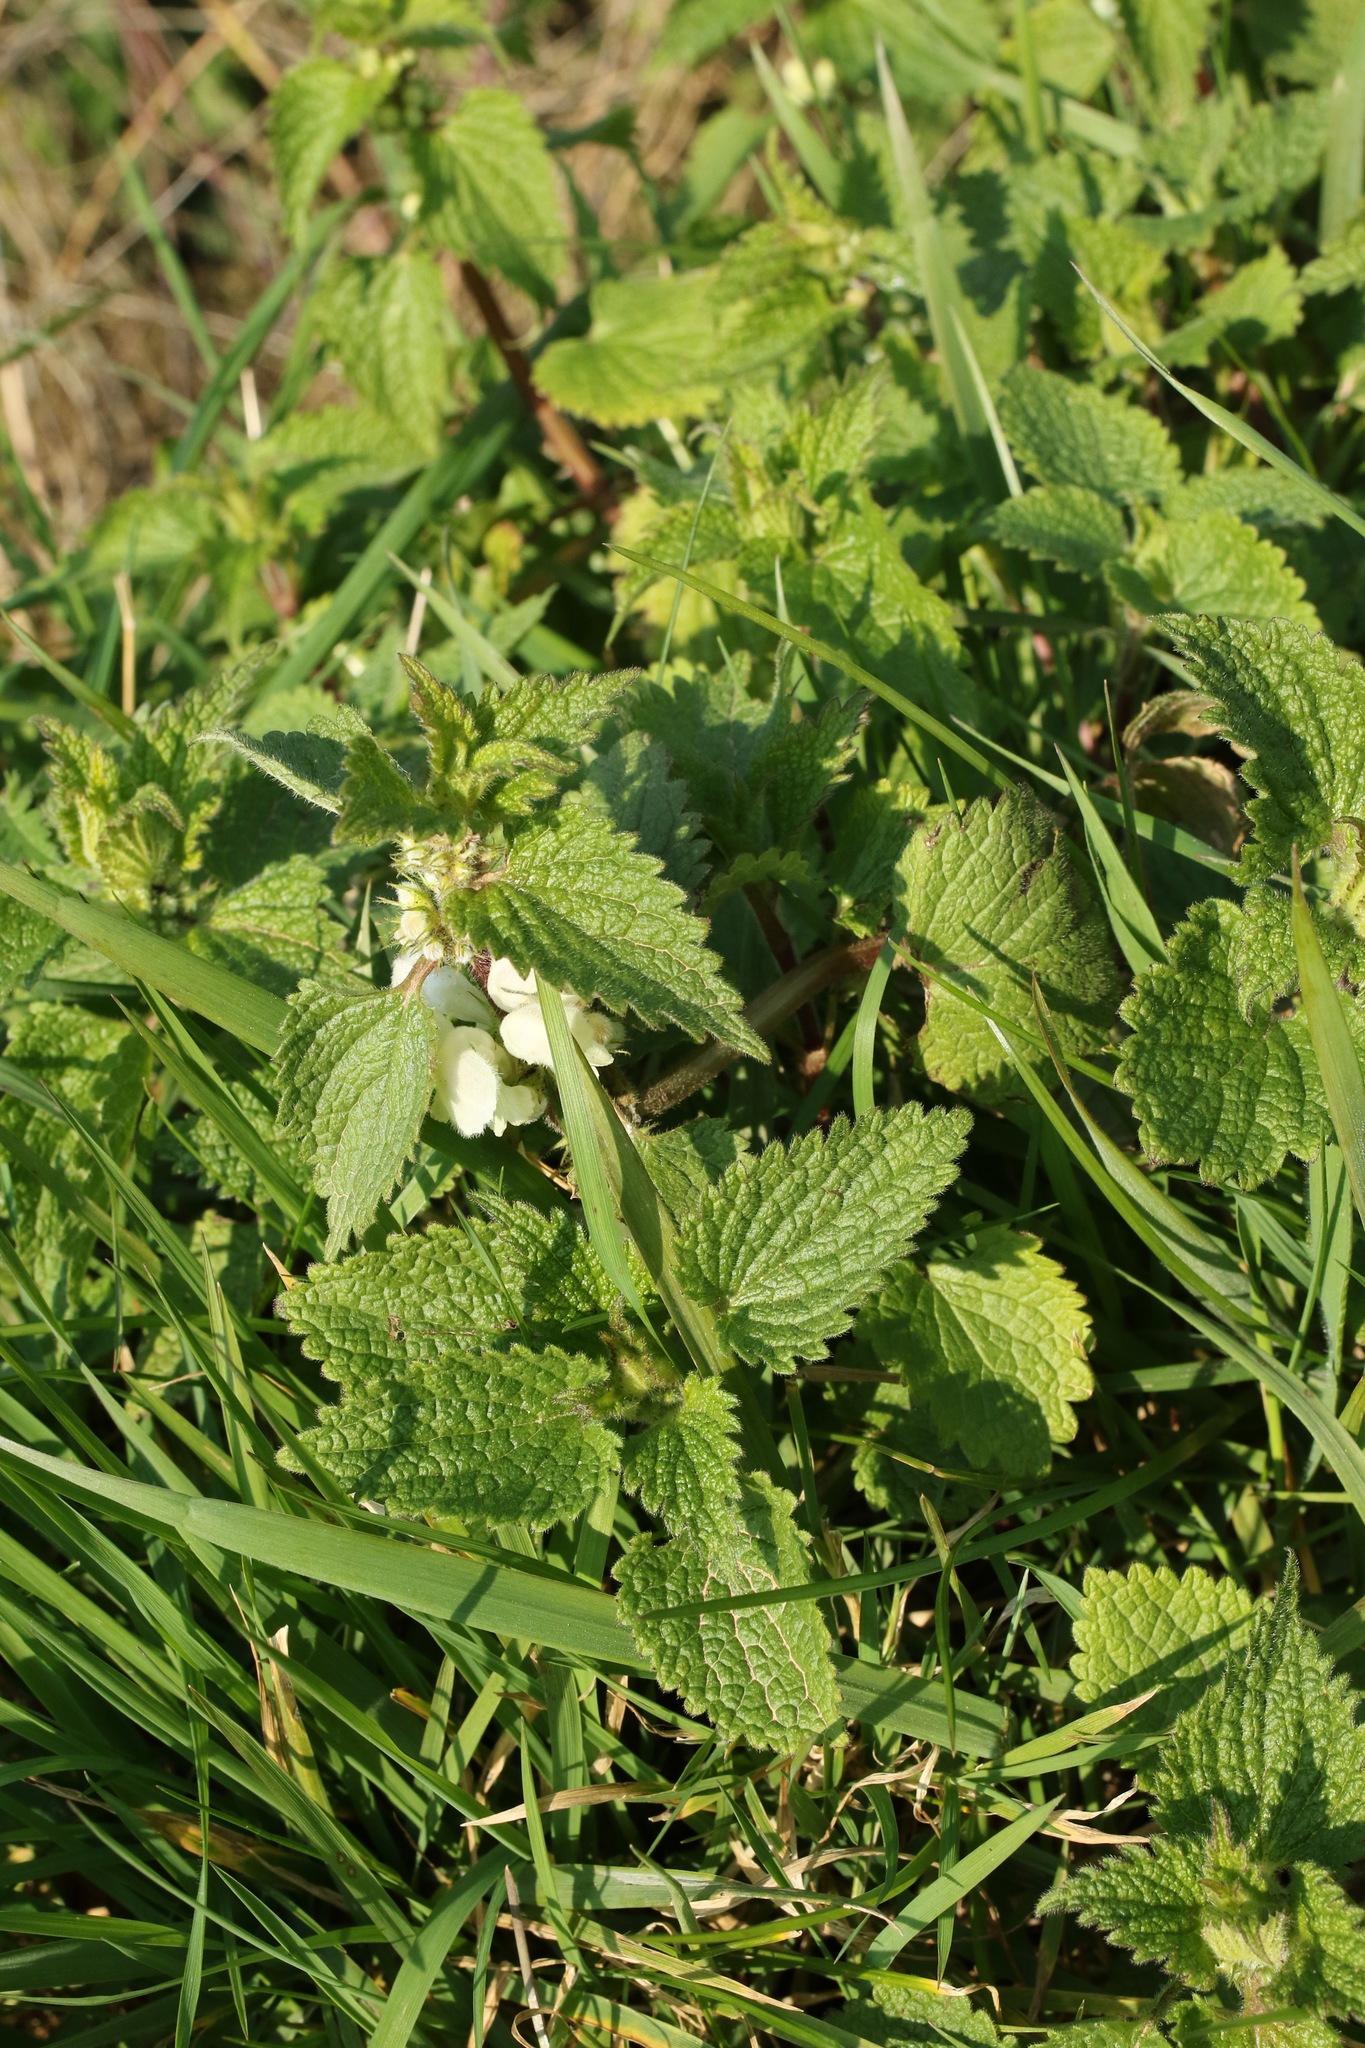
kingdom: Plantae
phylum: Tracheophyta
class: Magnoliopsida
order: Lamiales
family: Lamiaceae
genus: Lamium
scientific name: Lamium album
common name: White dead-nettle
